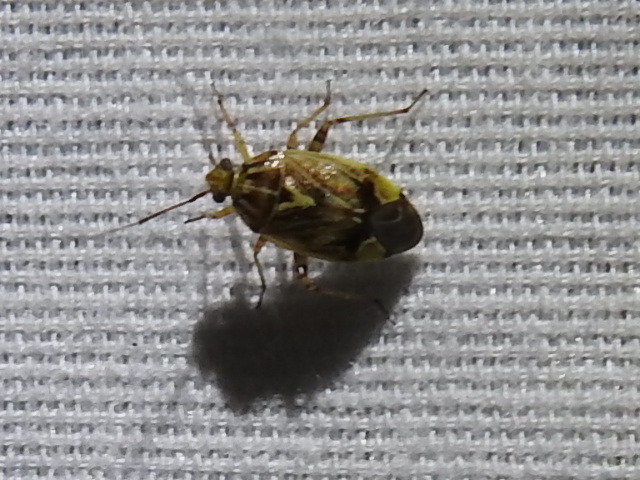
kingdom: Animalia
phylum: Arthropoda
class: Insecta
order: Hemiptera
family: Miridae
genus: Lygus
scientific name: Lygus lineolaris
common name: North american tarnished plant bug
